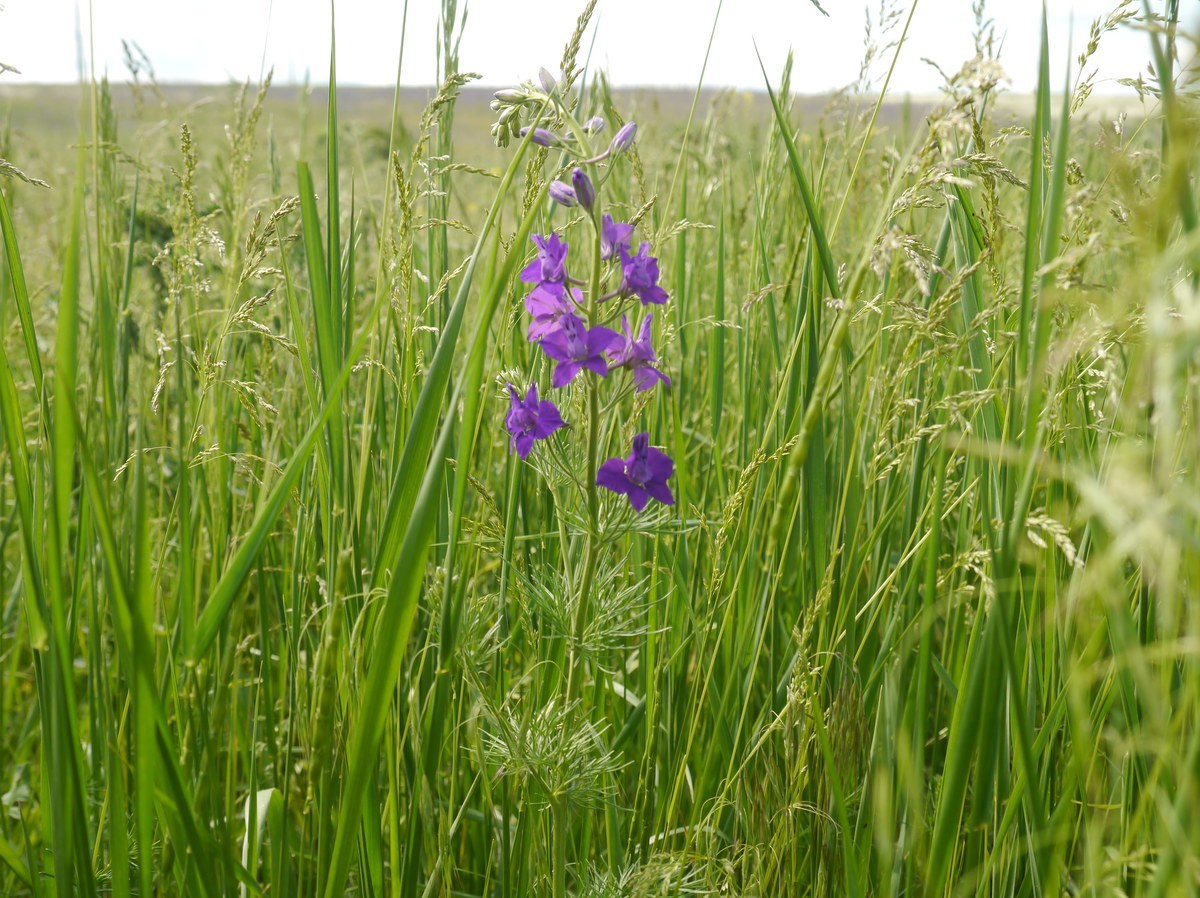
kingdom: Plantae
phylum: Tracheophyta
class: Magnoliopsida
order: Ranunculales
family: Ranunculaceae
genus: Delphinium
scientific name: Delphinium ajacis
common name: Doubtful knight's-spur
